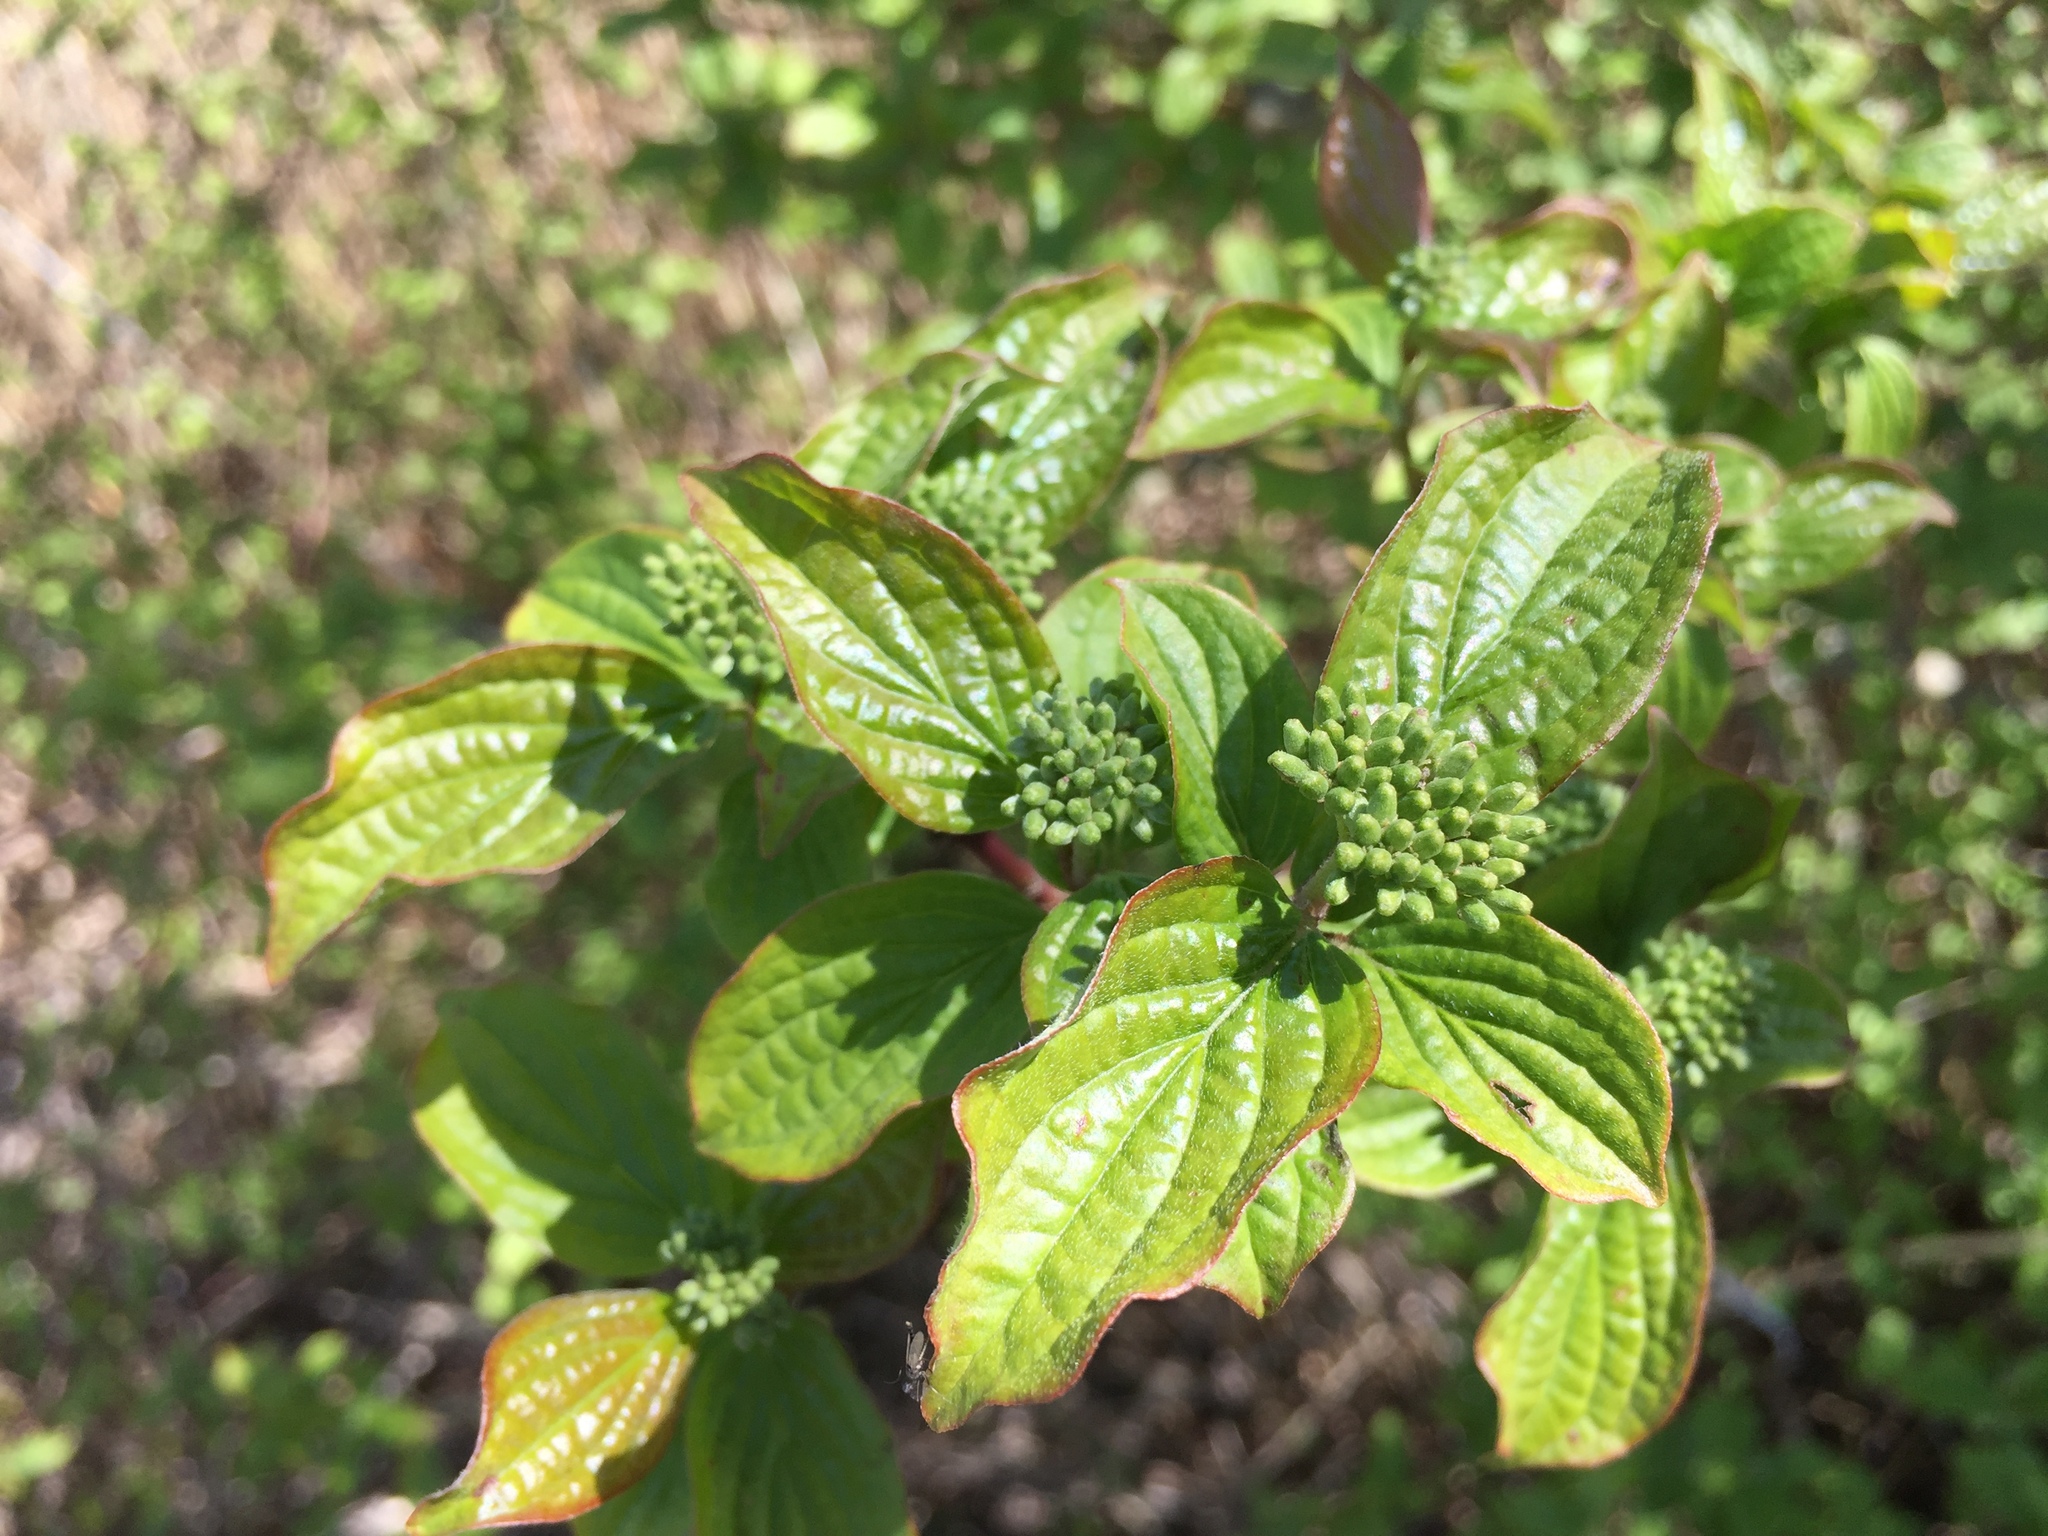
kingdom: Plantae
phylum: Tracheophyta
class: Magnoliopsida
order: Cornales
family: Cornaceae
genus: Cornus
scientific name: Cornus sanguinea
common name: Dogwood
